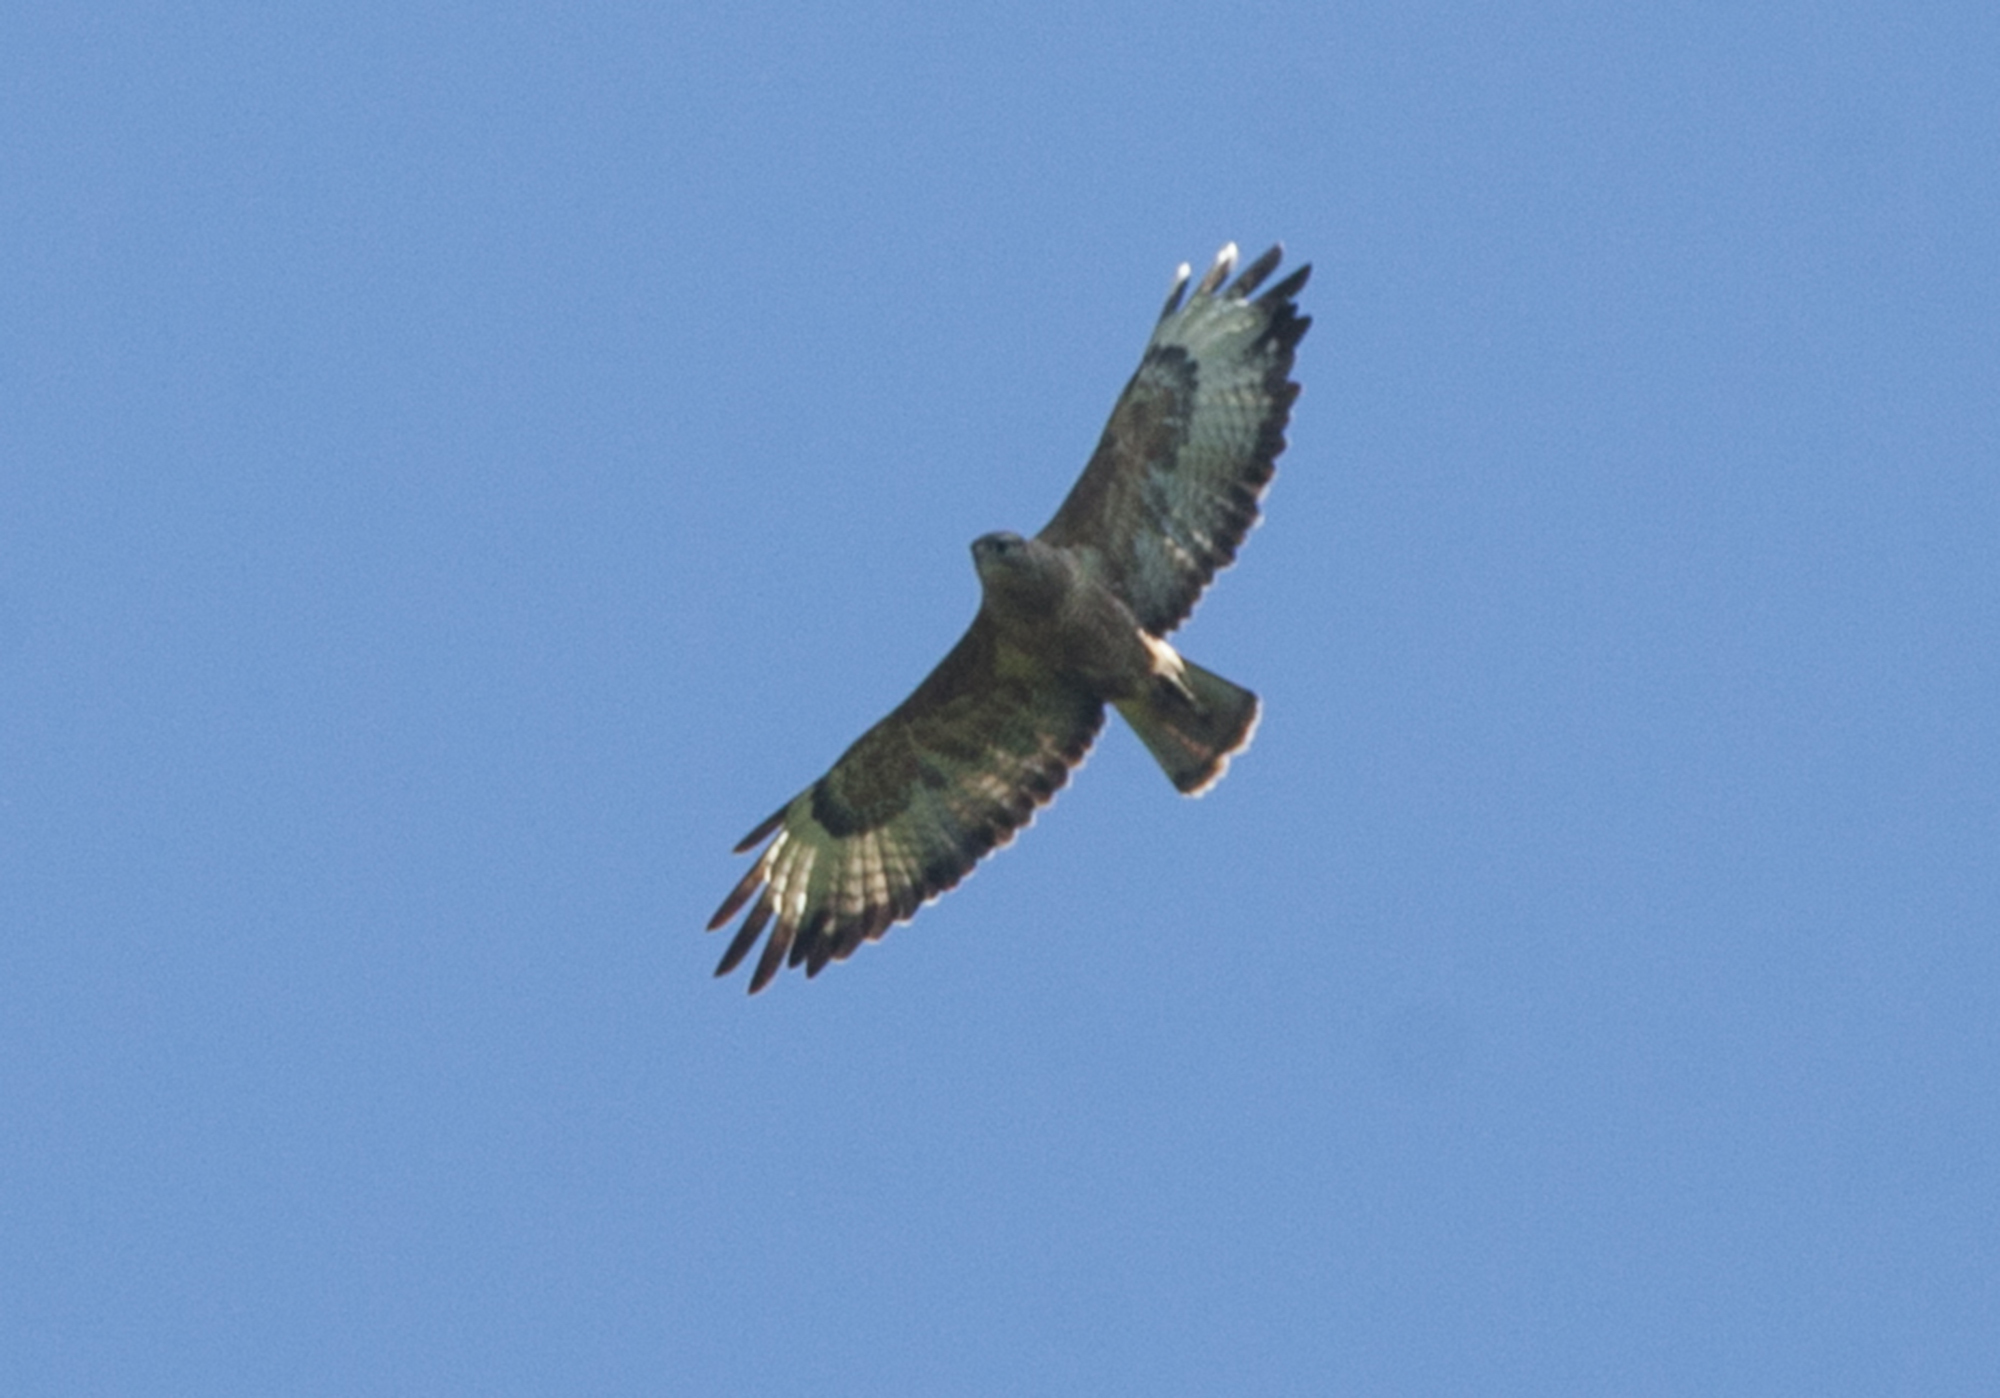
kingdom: Animalia
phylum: Chordata
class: Aves
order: Accipitriformes
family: Accipitridae
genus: Buteo
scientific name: Buteo buteo
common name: Common buzzard
